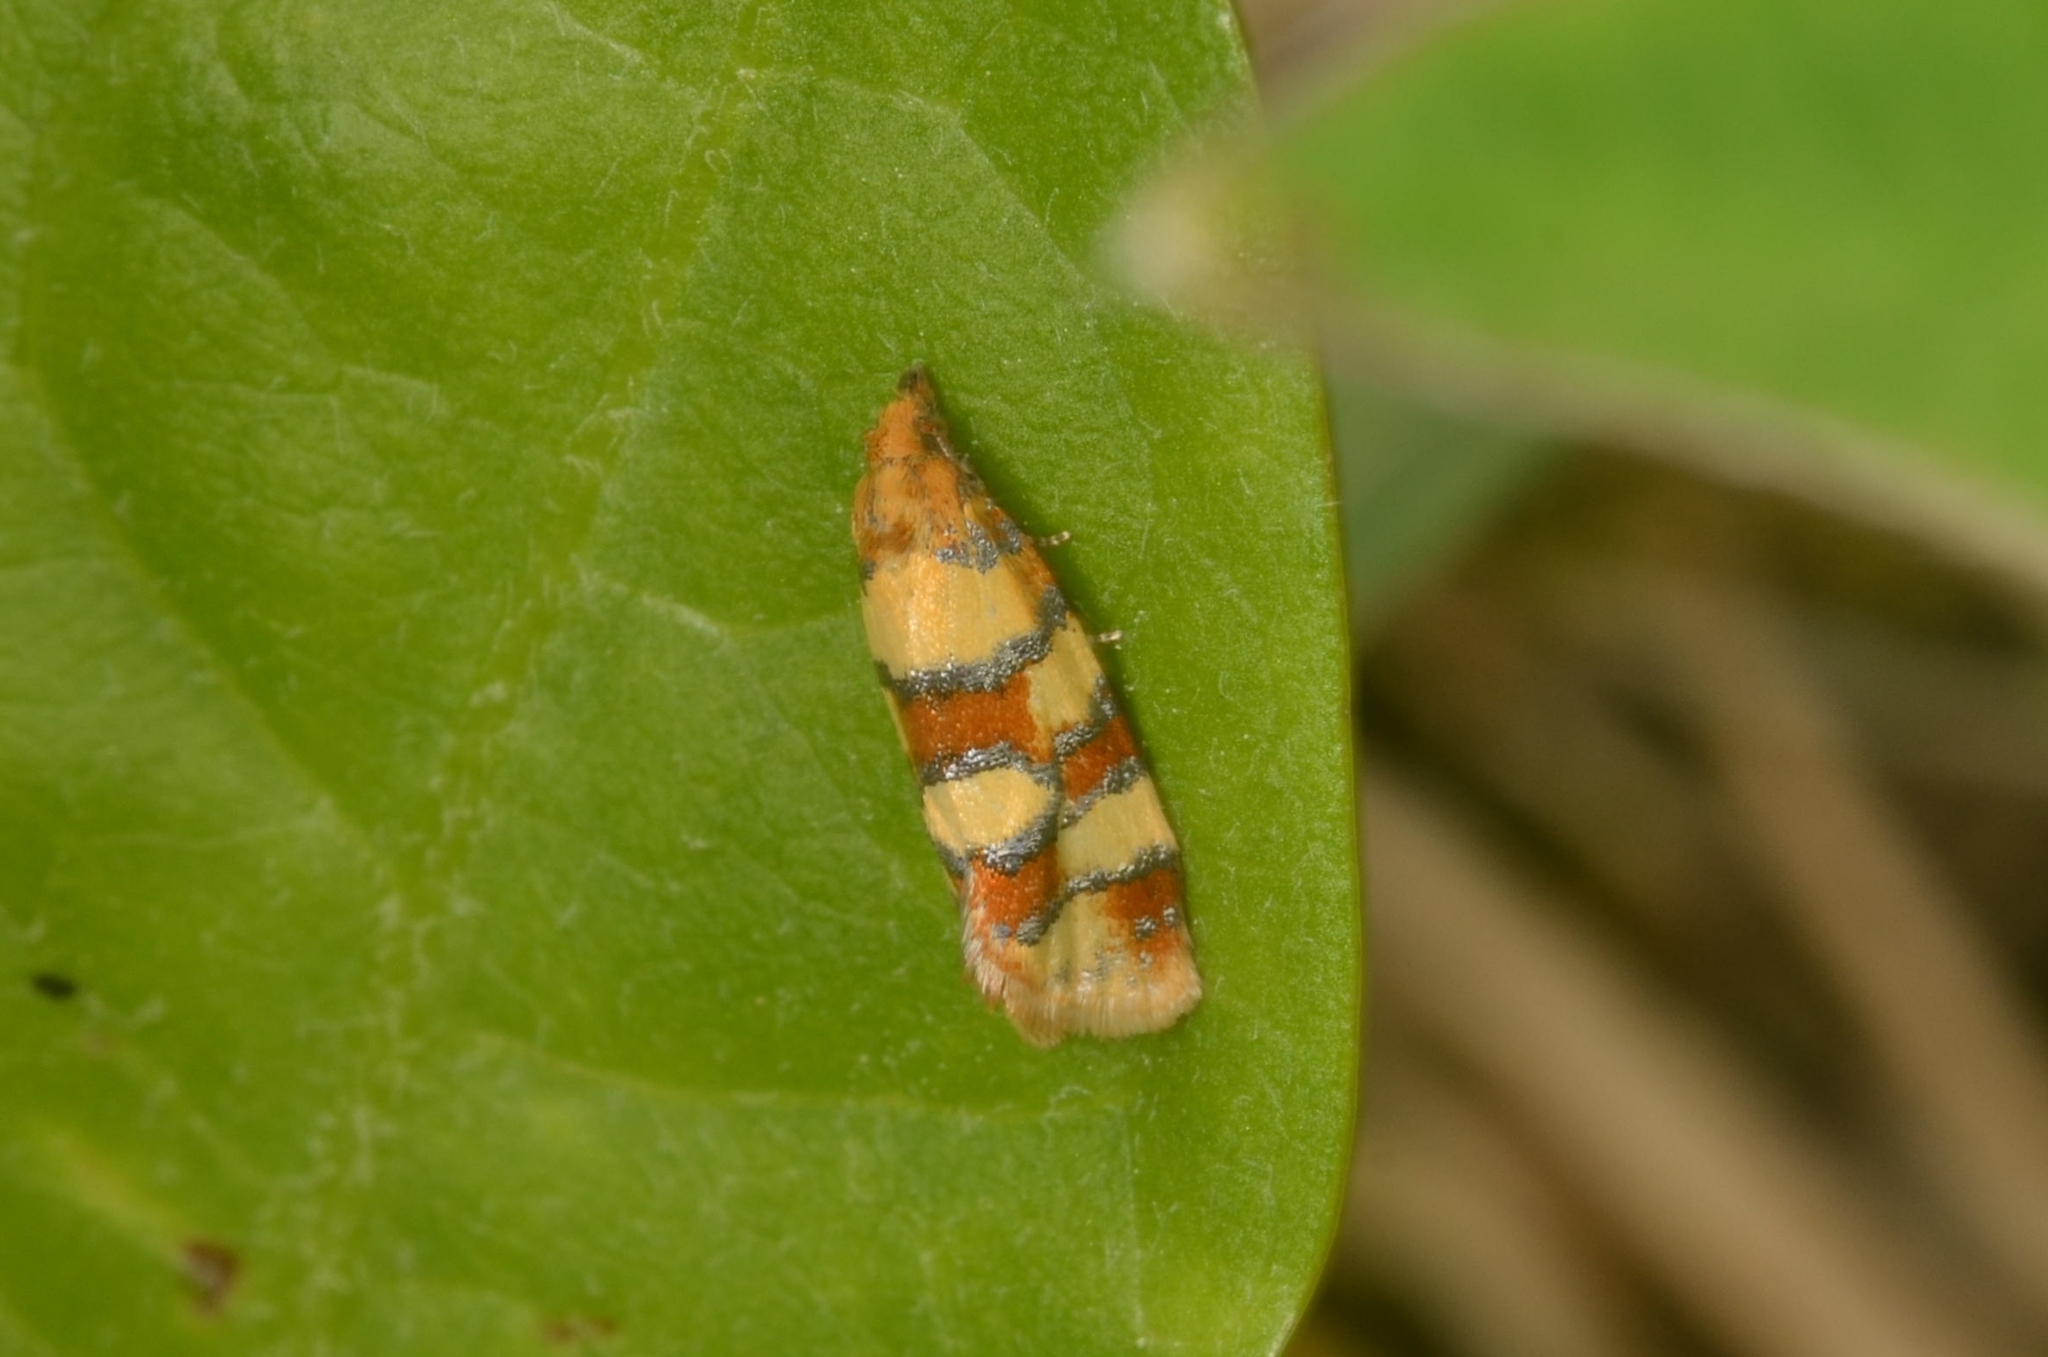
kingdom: Animalia
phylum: Arthropoda
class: Insecta
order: Lepidoptera
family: Tortricidae
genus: Aethes
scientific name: Aethes tesserana
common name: Downland conch
